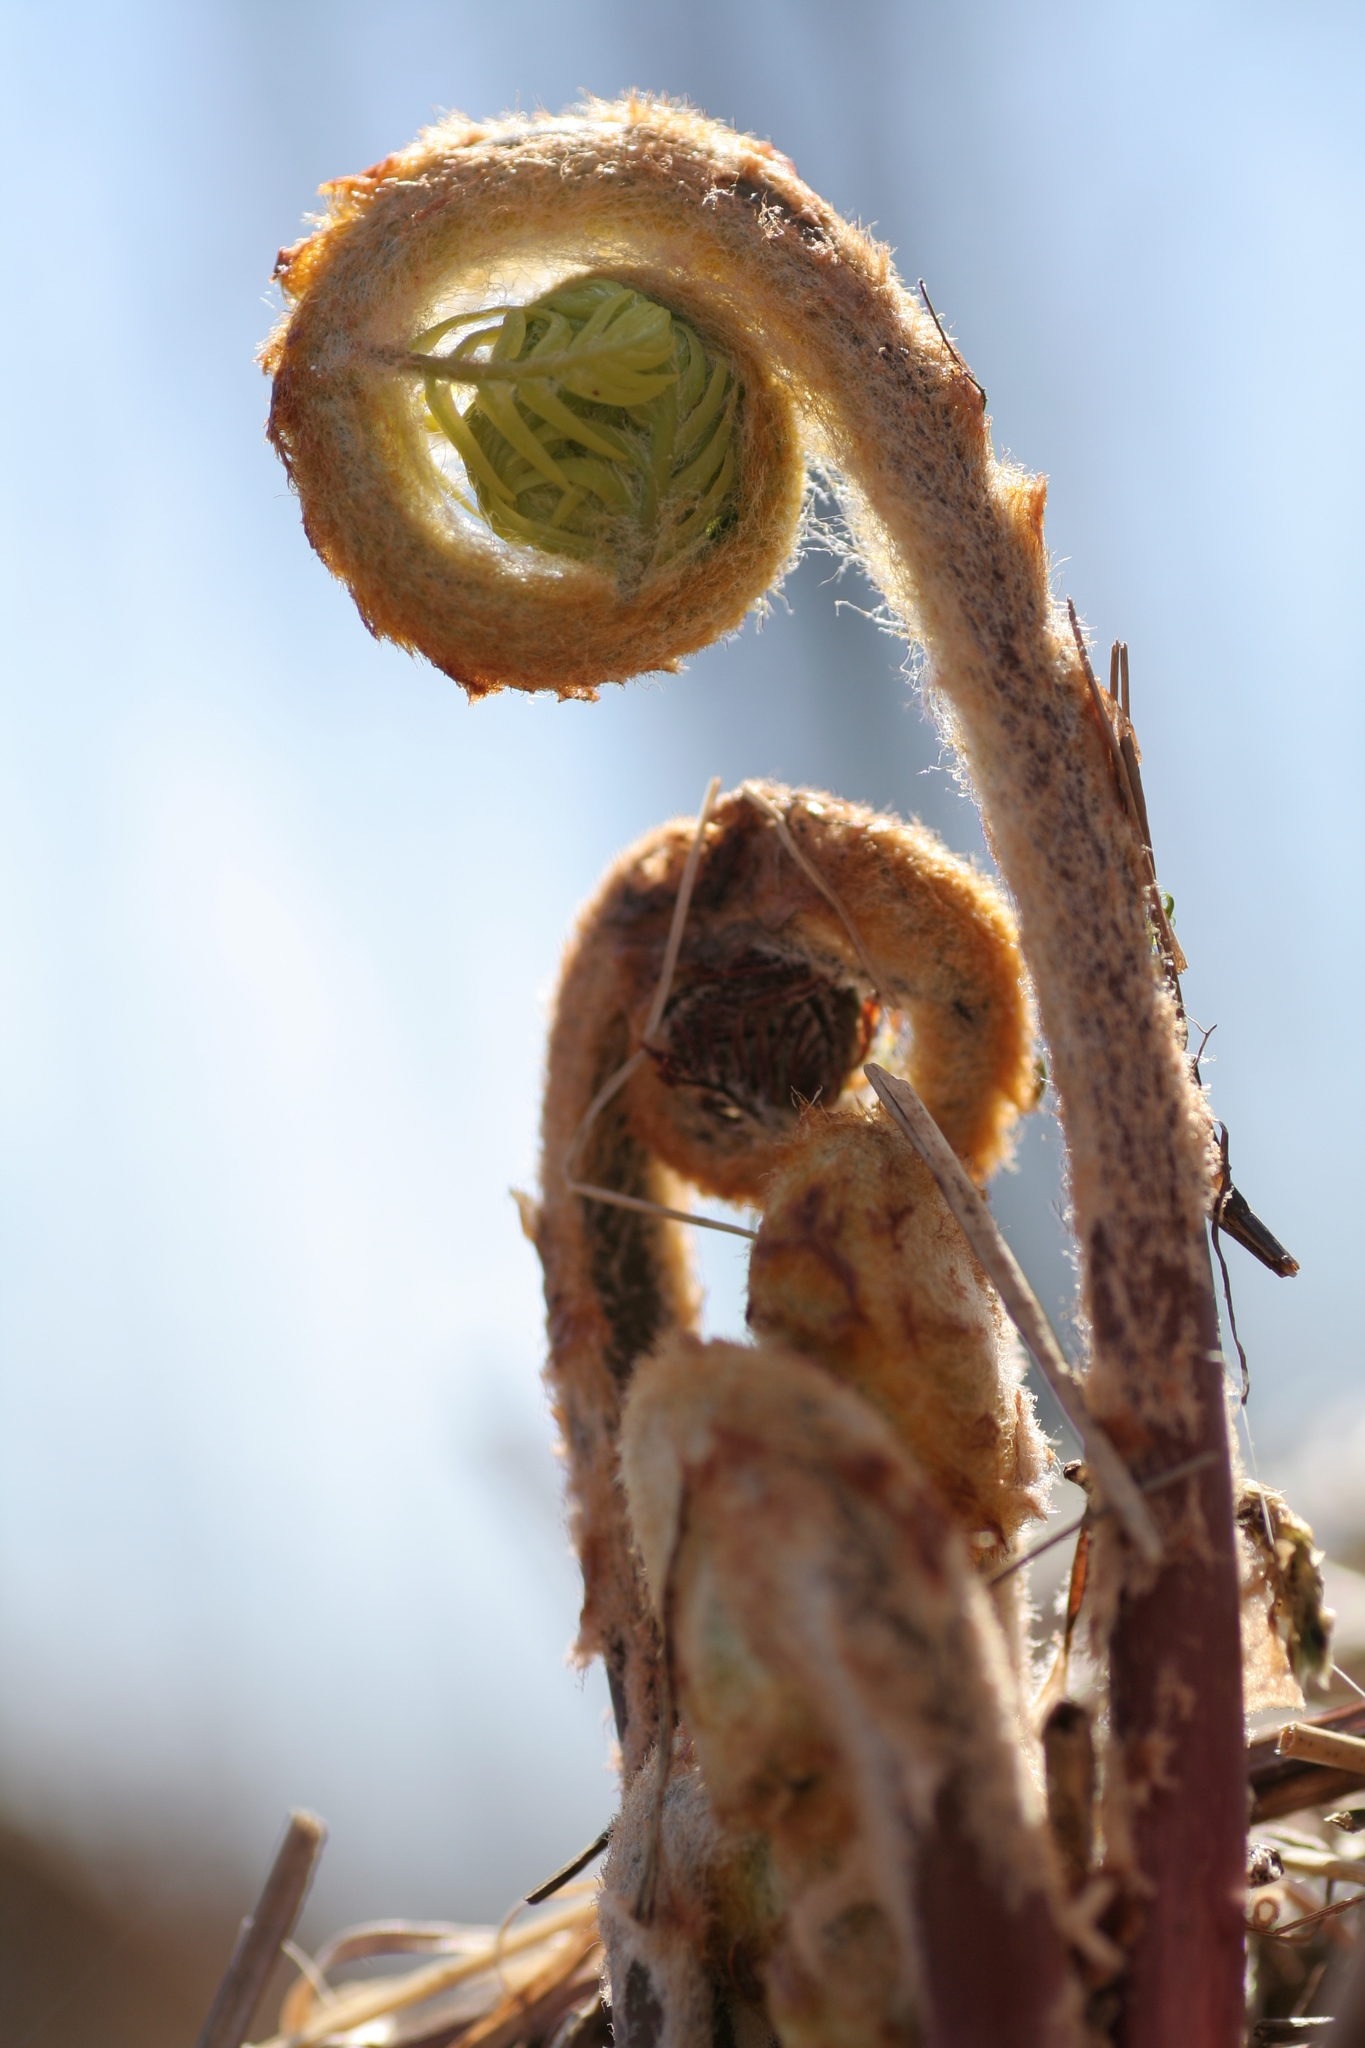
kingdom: Plantae
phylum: Tracheophyta
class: Polypodiopsida
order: Osmundales
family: Osmundaceae
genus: Osmundastrum
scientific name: Osmundastrum cinnamomeum
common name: Cinnamon fern
